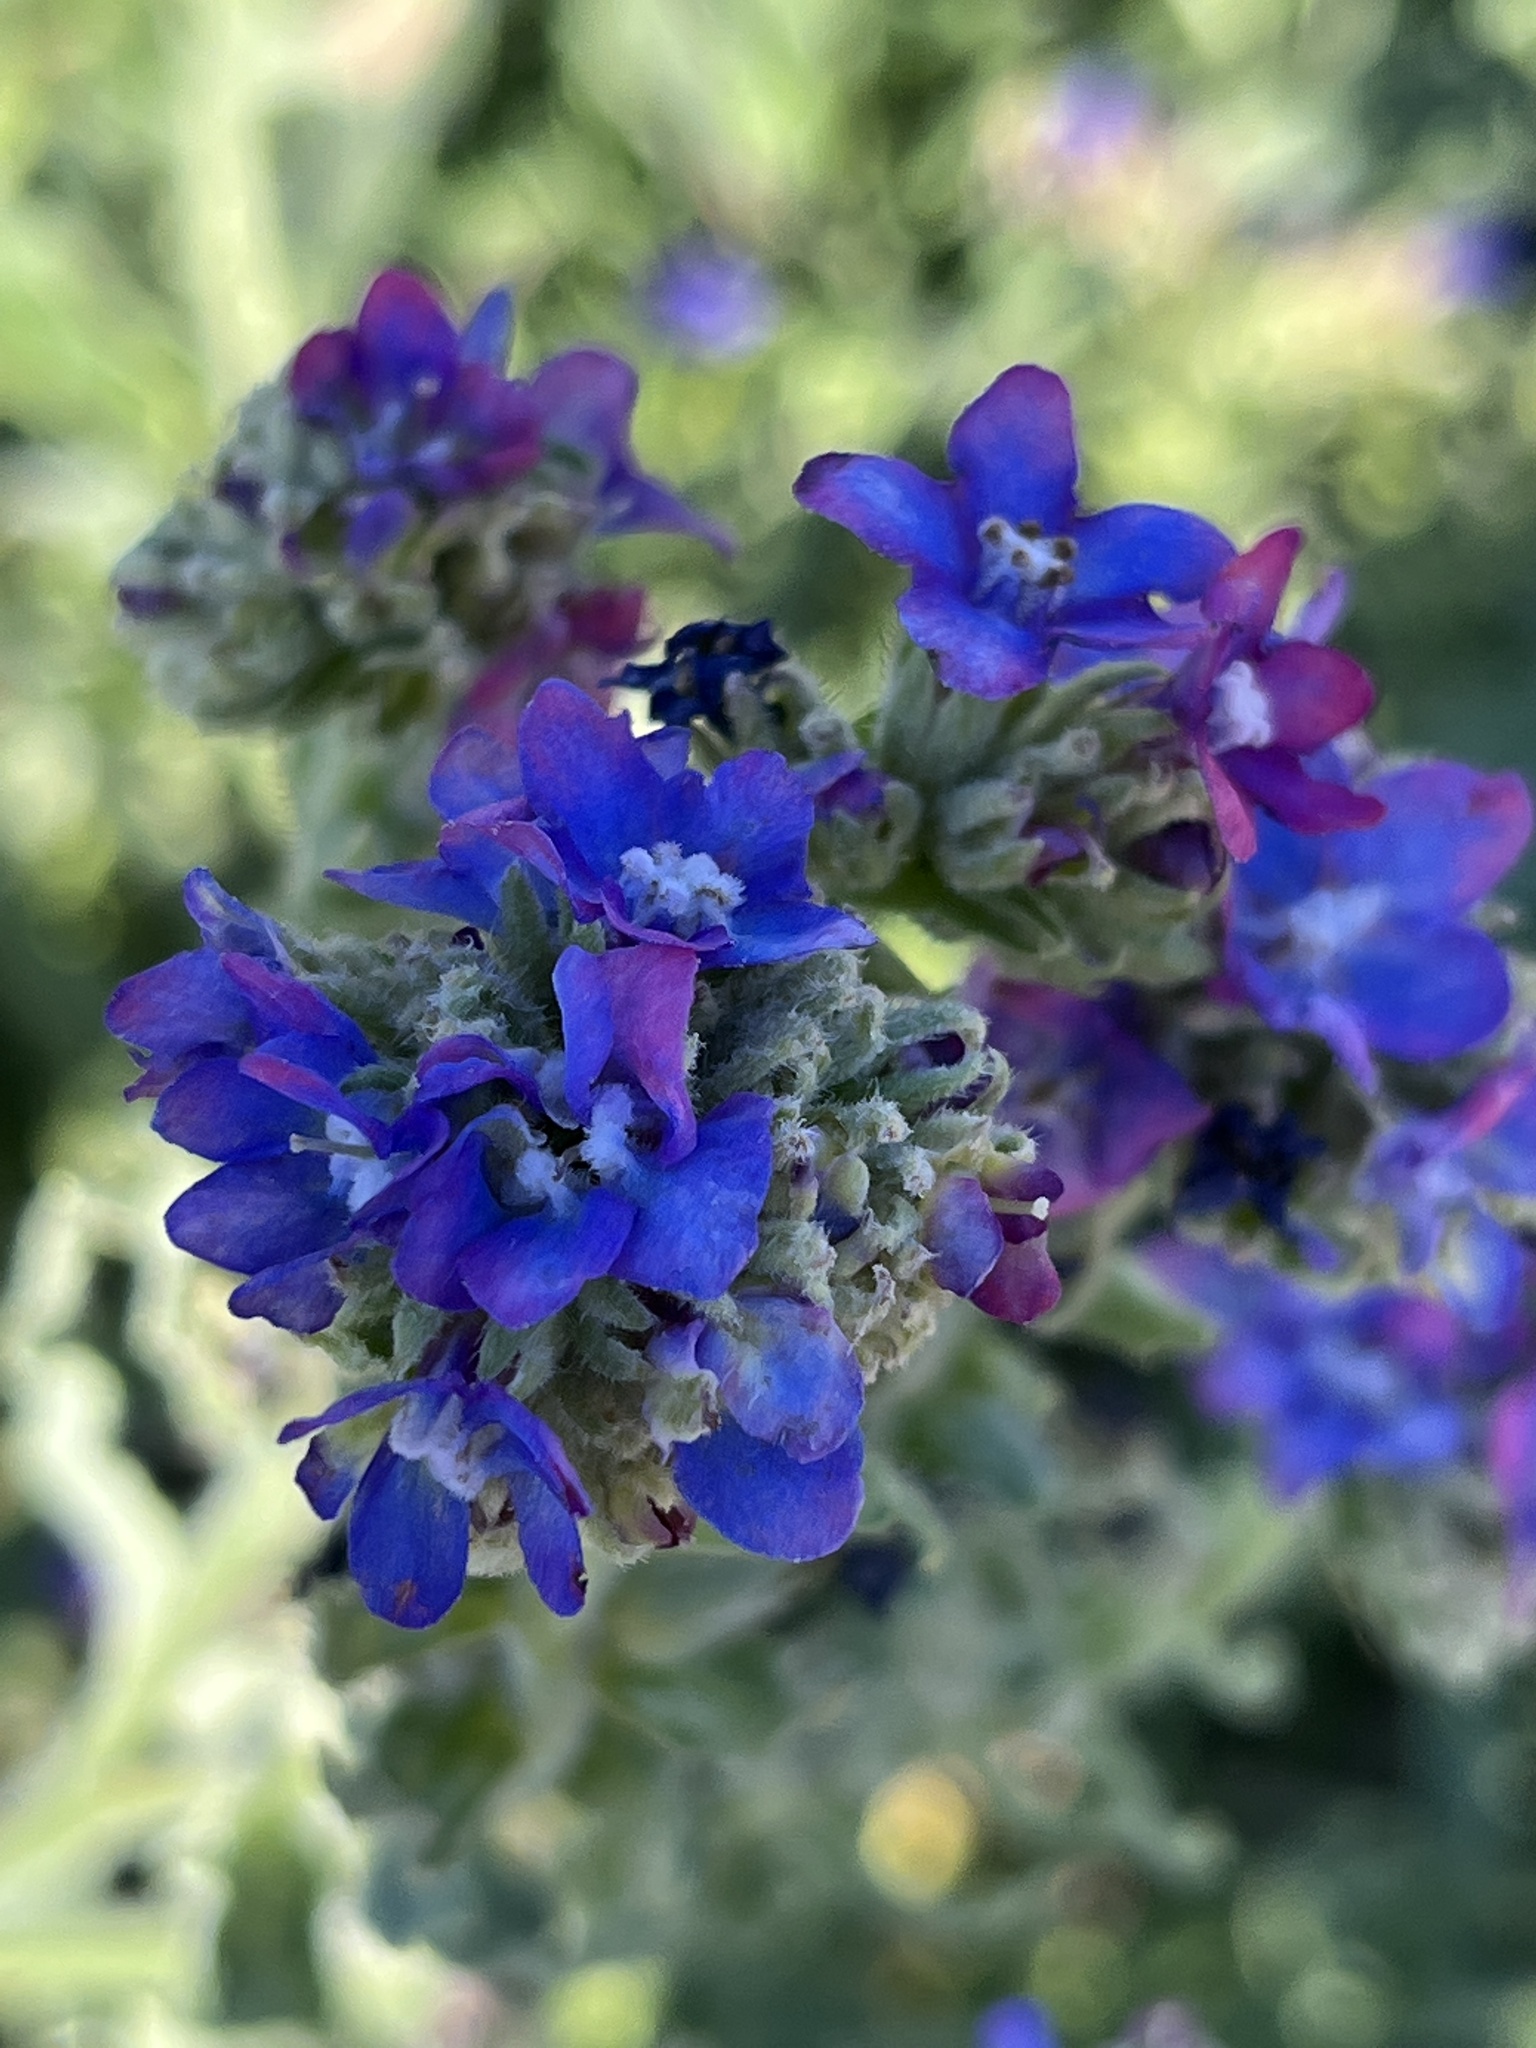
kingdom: Plantae
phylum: Tracheophyta
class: Magnoliopsida
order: Boraginales
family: Boraginaceae
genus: Anchusa
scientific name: Anchusa officinalis
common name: Alkanet
